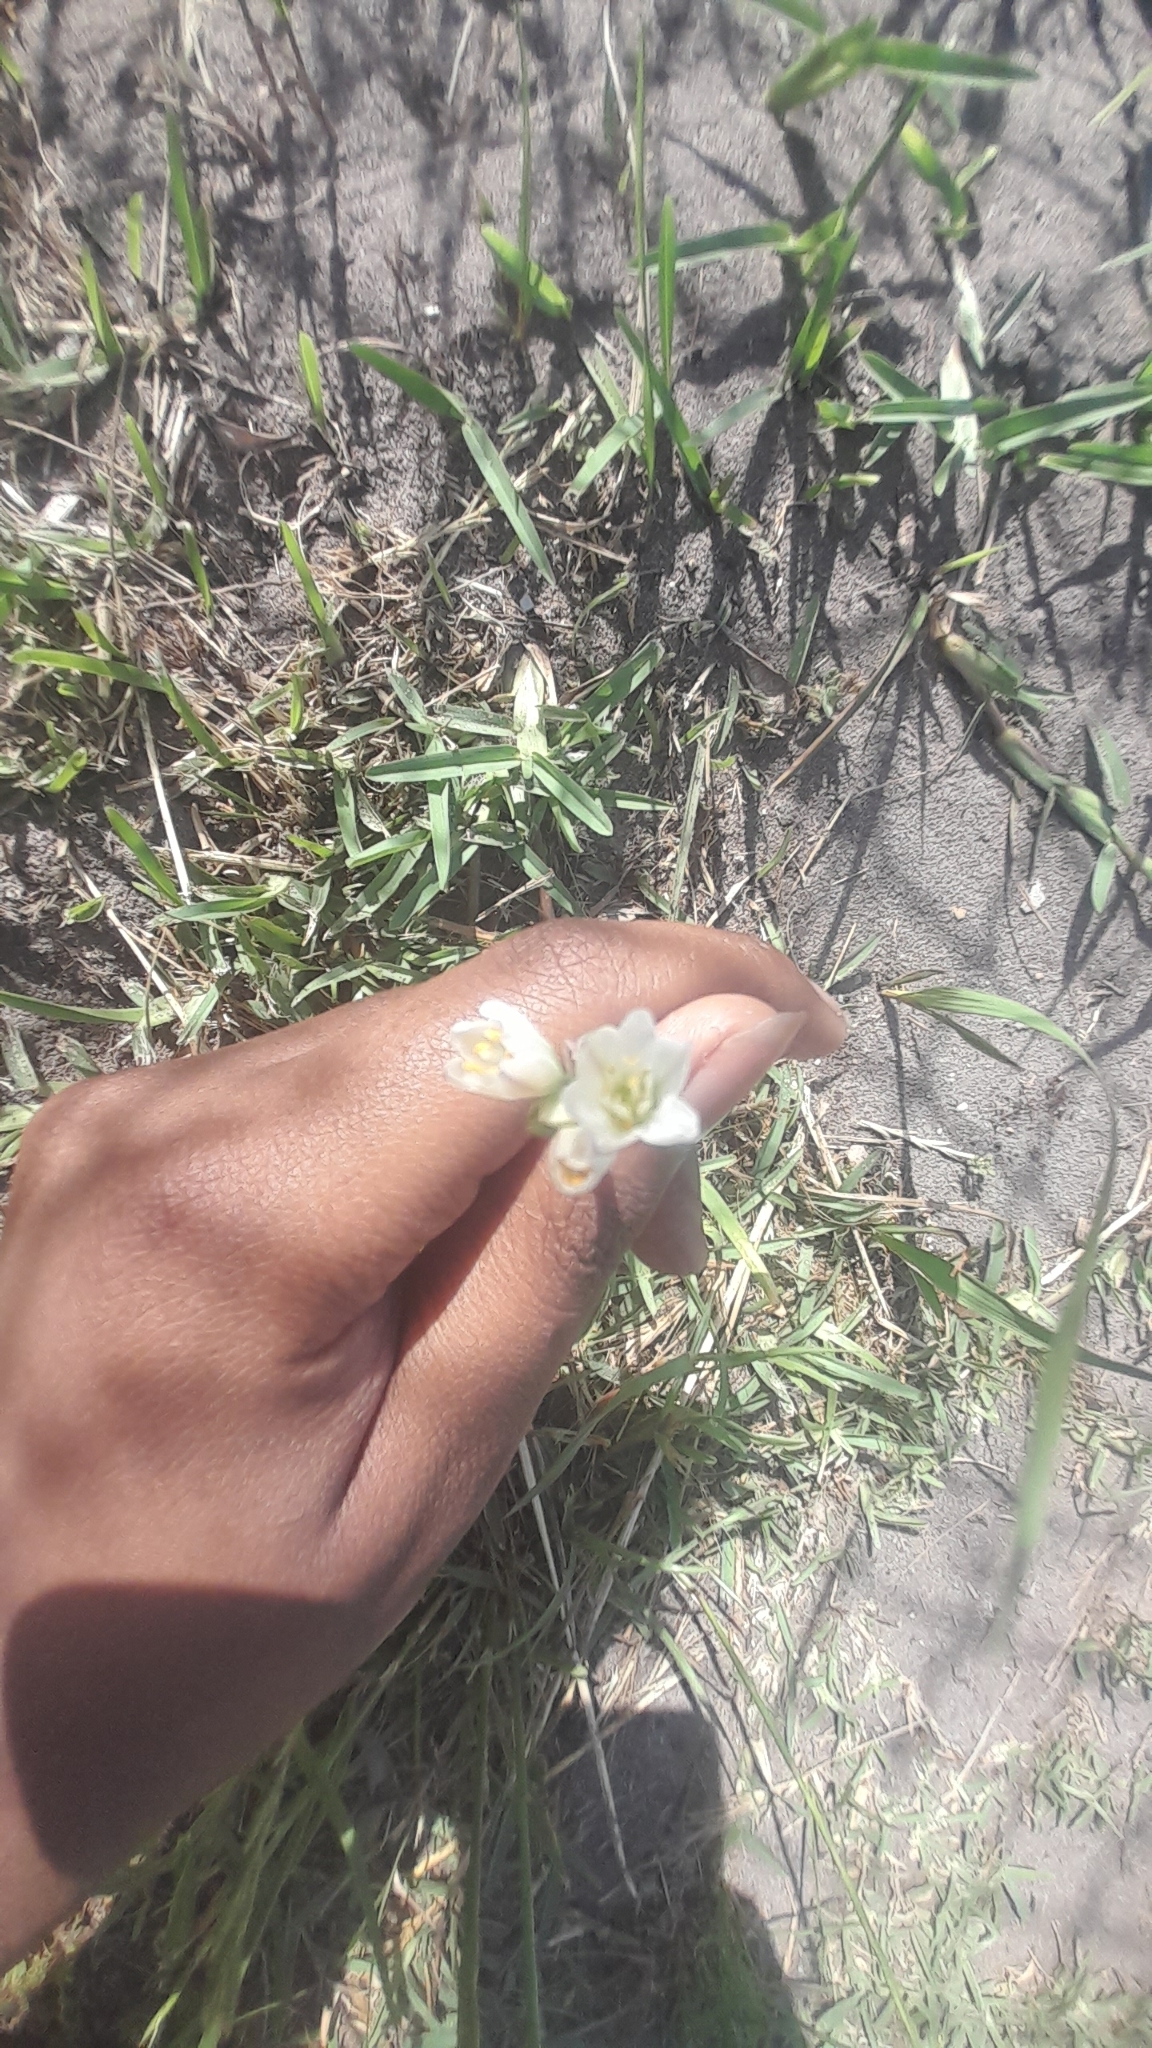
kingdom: Plantae
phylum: Tracheophyta
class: Liliopsida
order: Asparagales
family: Amaryllidaceae
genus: Nothoscordum
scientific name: Nothoscordum gracile
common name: Slender false garlic
